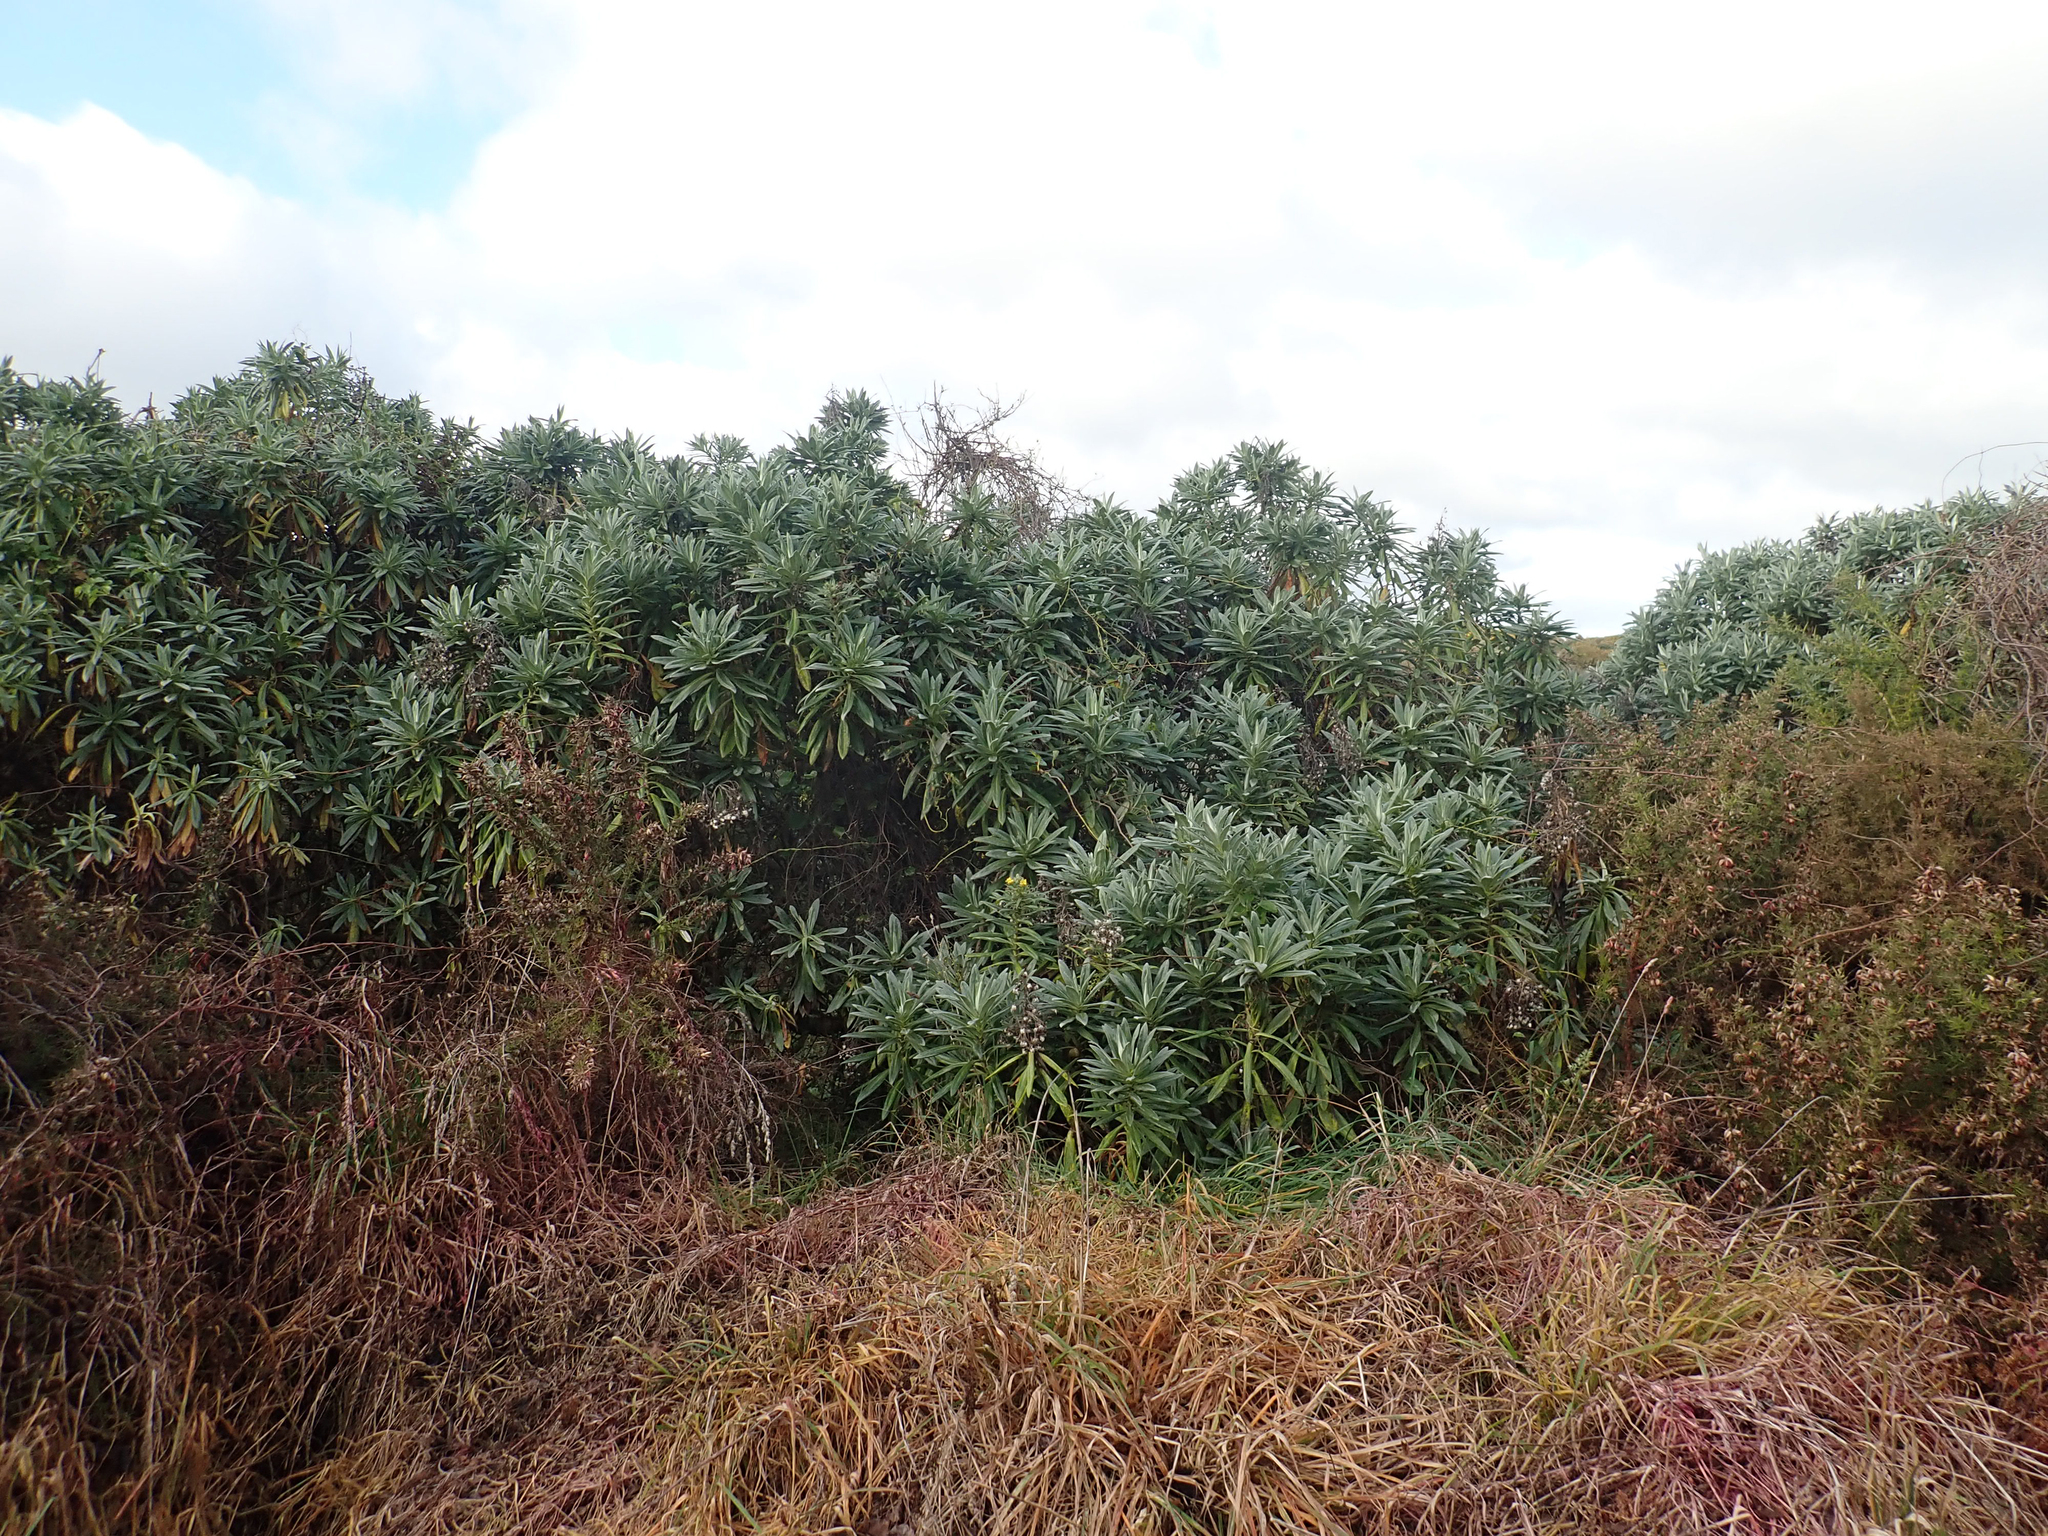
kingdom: Plantae
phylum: Tracheophyta
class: Magnoliopsida
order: Asterales
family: Asteraceae
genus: Brachyglottis
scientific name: Brachyglottis huntii
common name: Chatham island christmas tree
